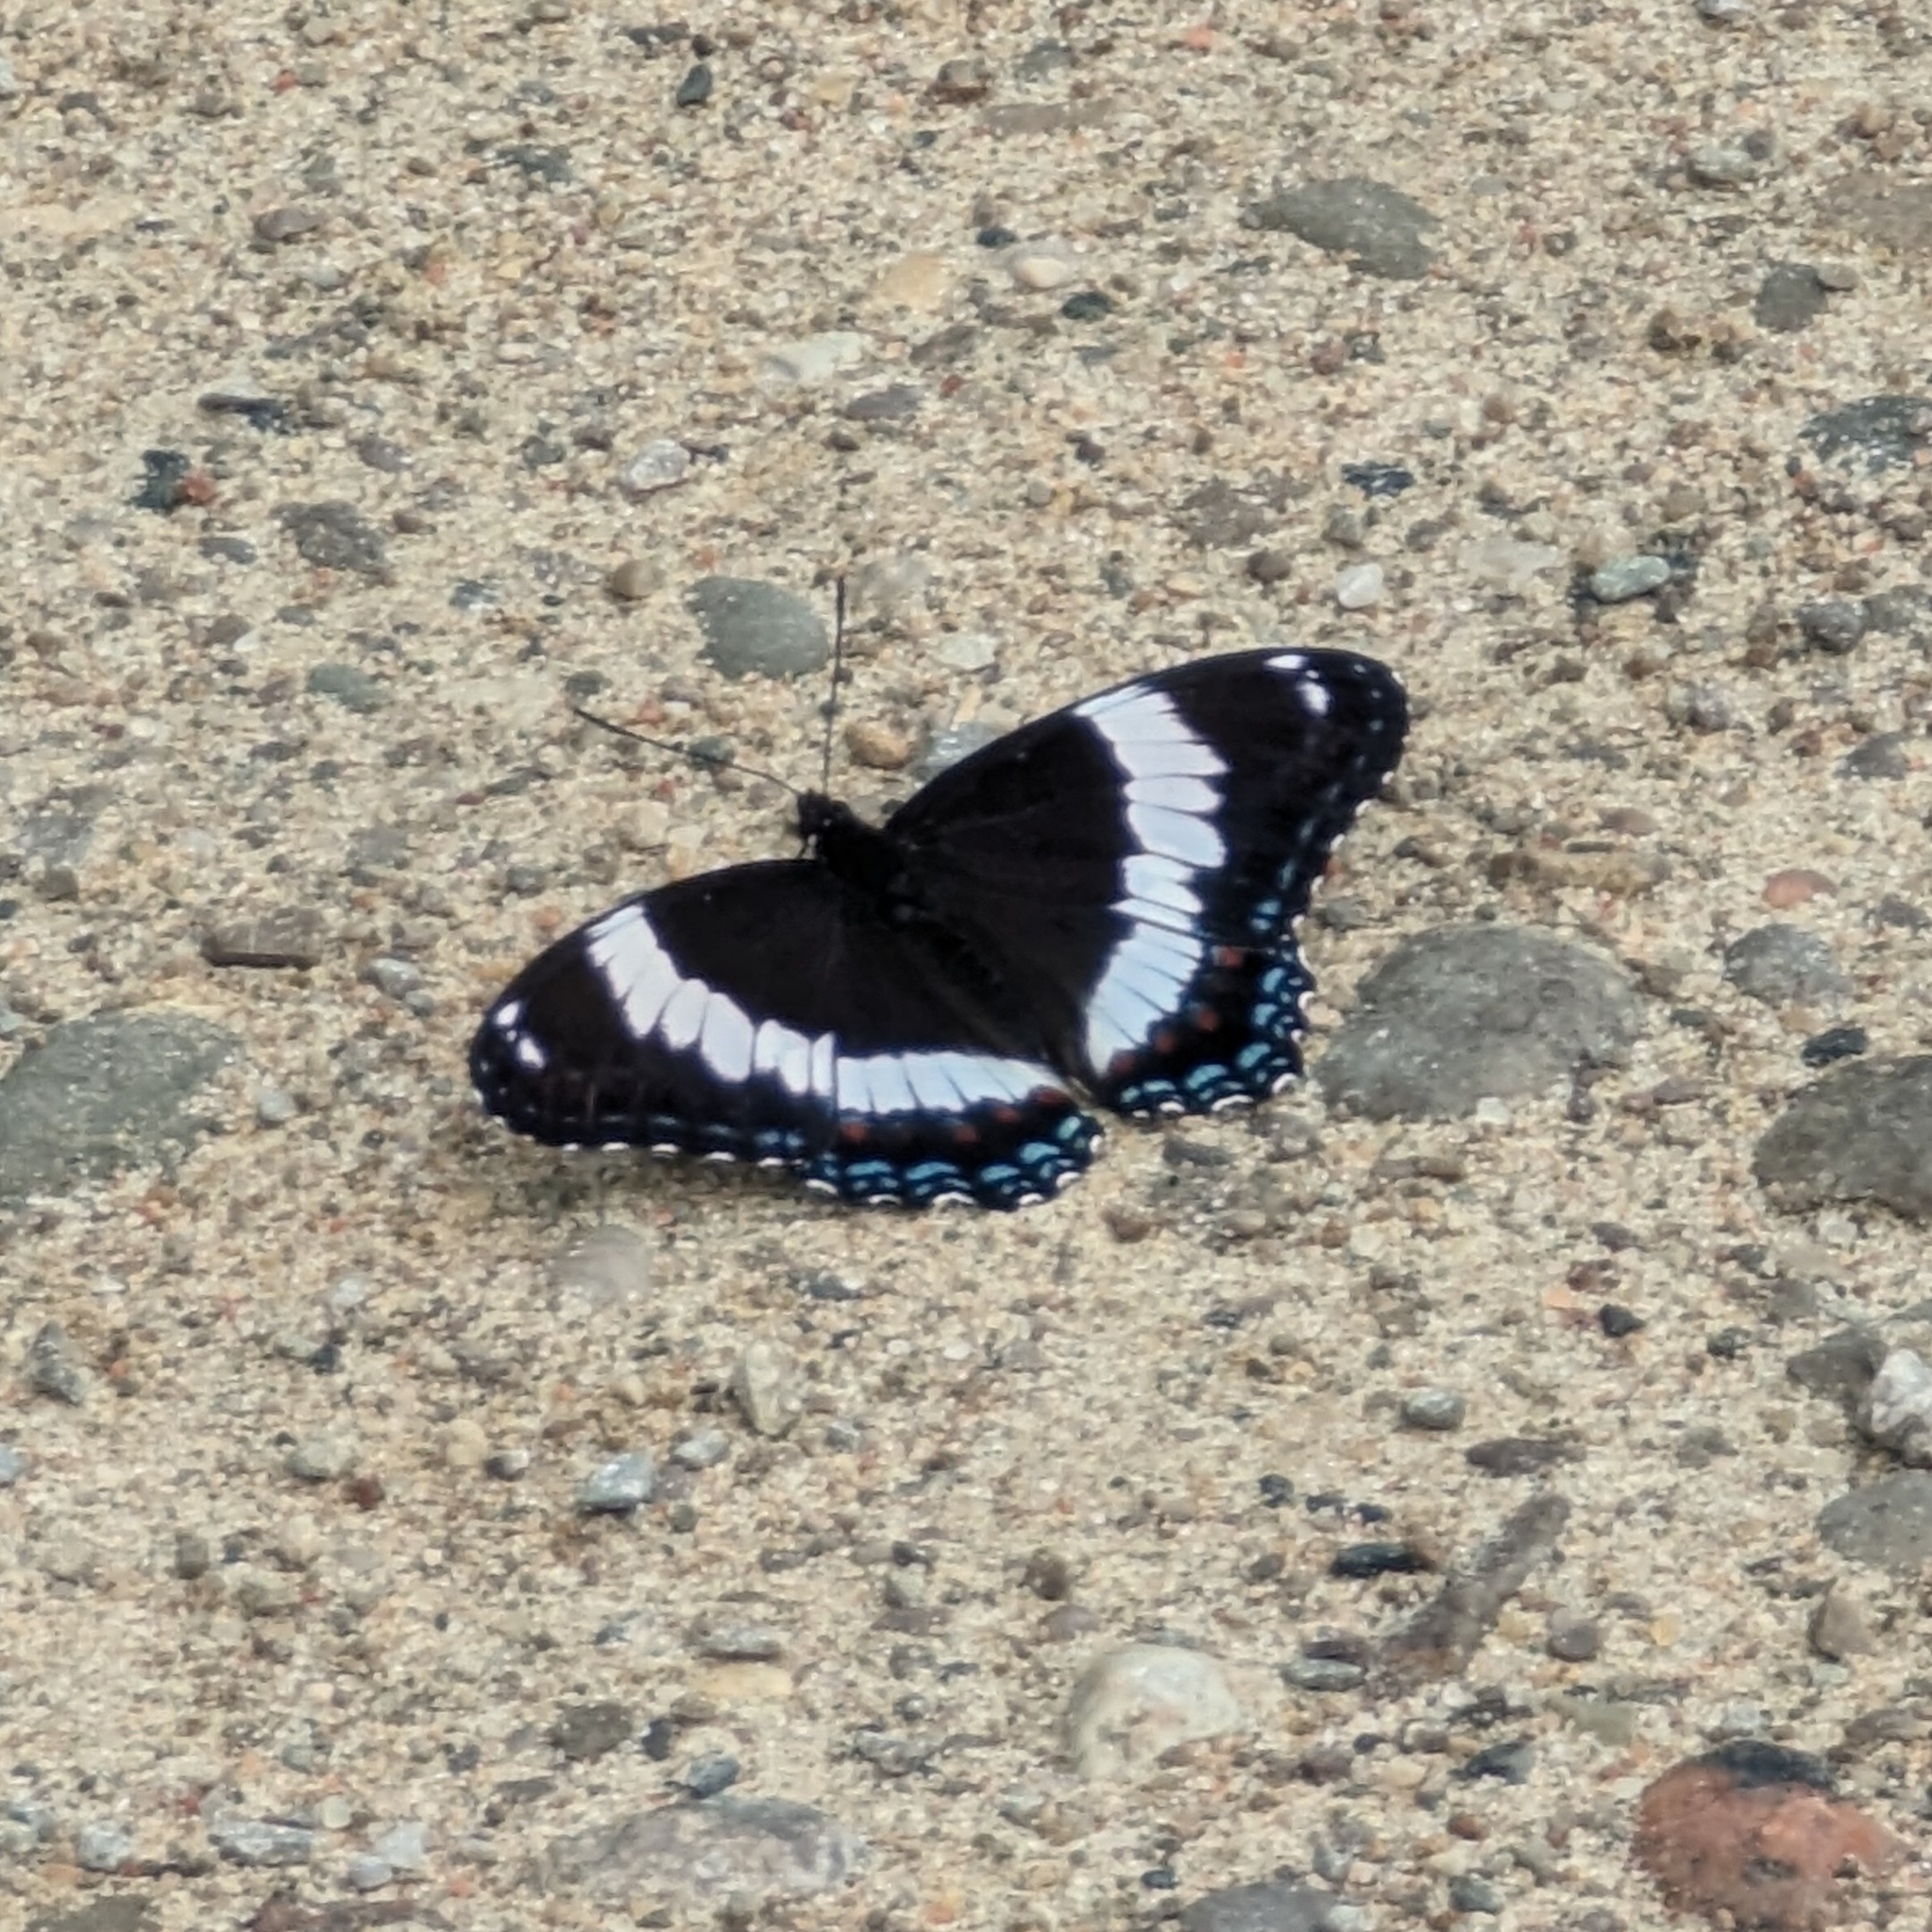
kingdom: Animalia
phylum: Arthropoda
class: Insecta
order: Lepidoptera
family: Nymphalidae
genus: Limenitis
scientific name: Limenitis arthemis
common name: Red-spotted admiral
